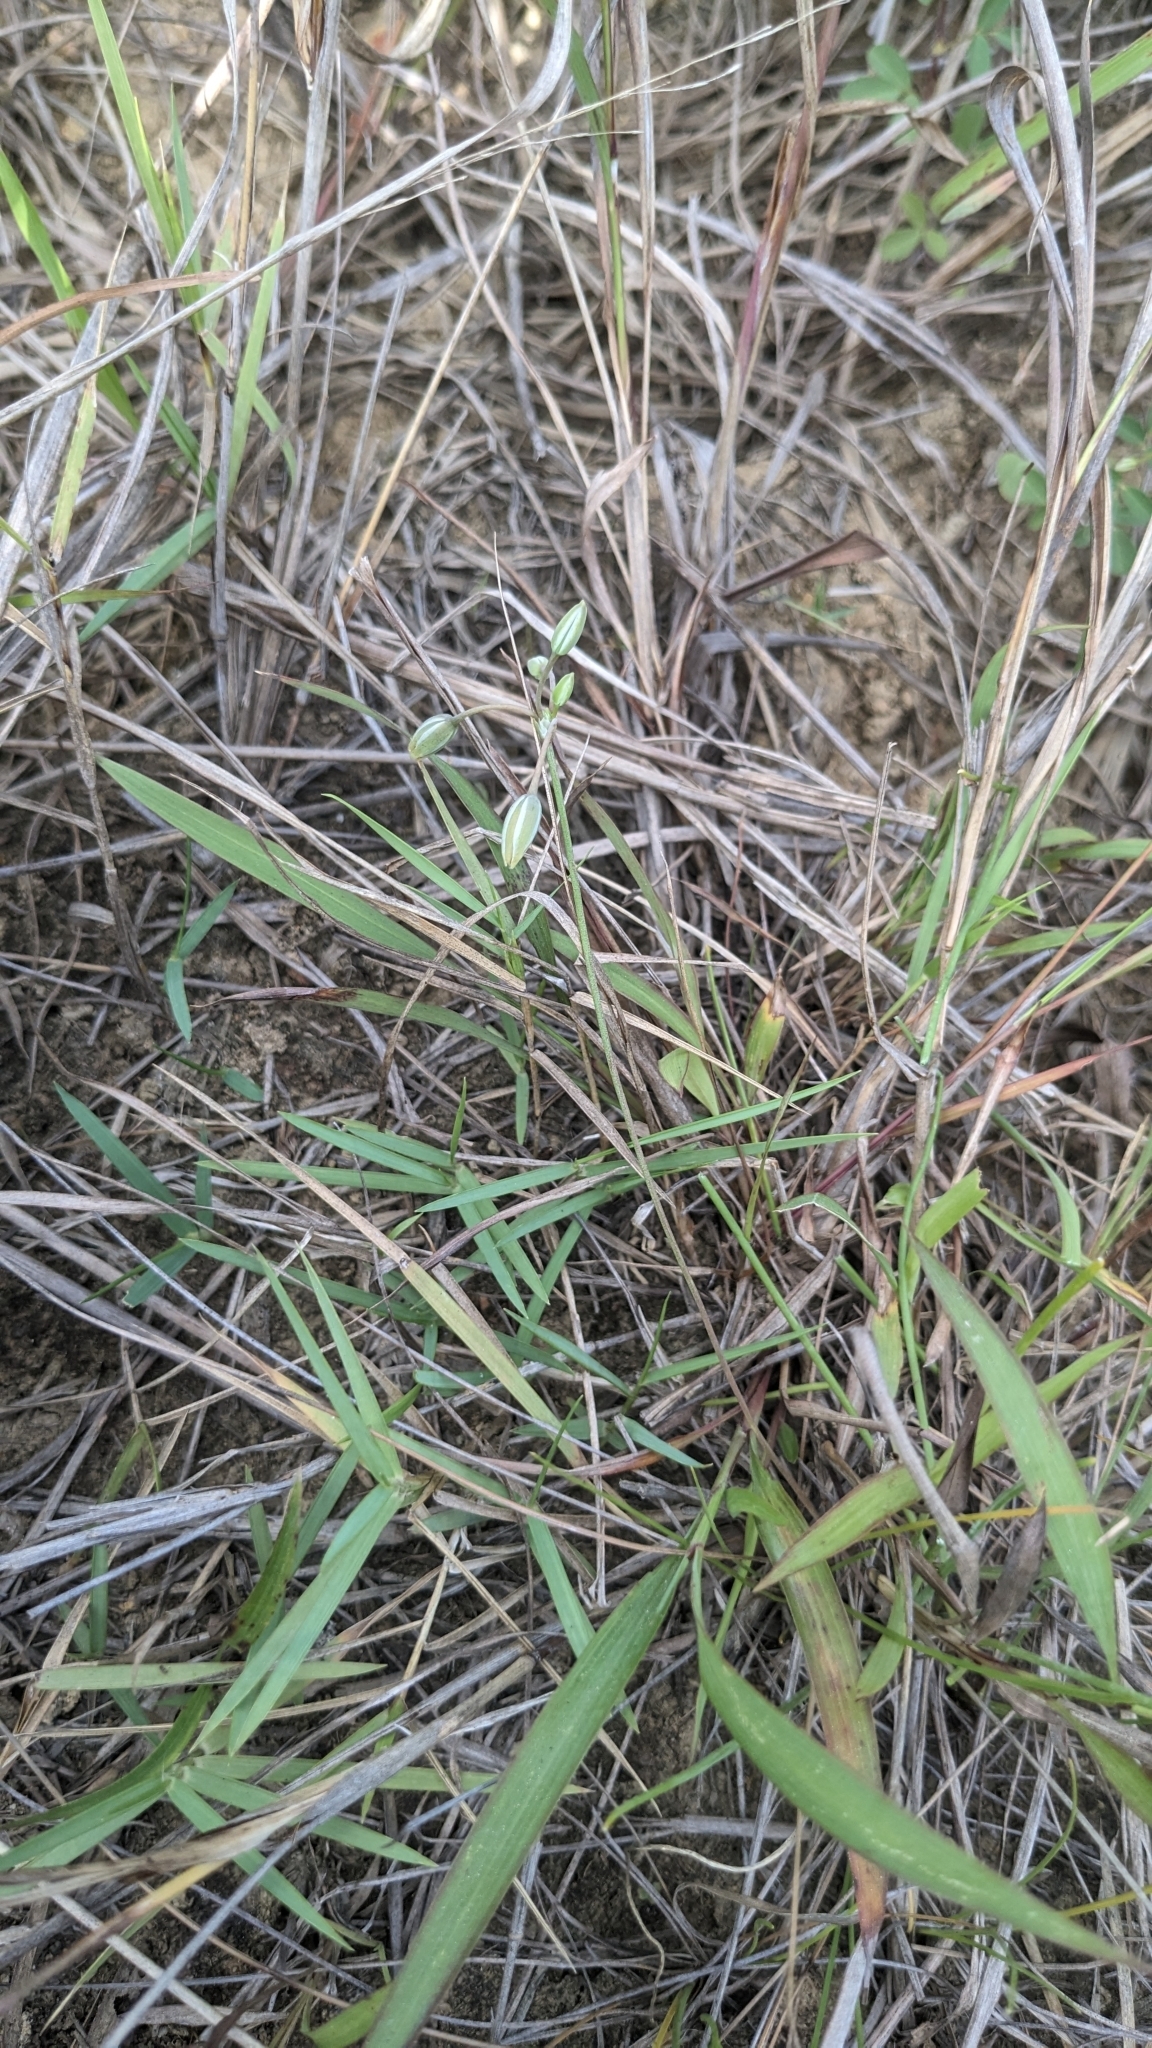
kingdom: Plantae
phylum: Tracheophyta
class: Liliopsida
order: Asparagales
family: Asparagaceae
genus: Thysanotus
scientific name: Thysanotus chinensis
